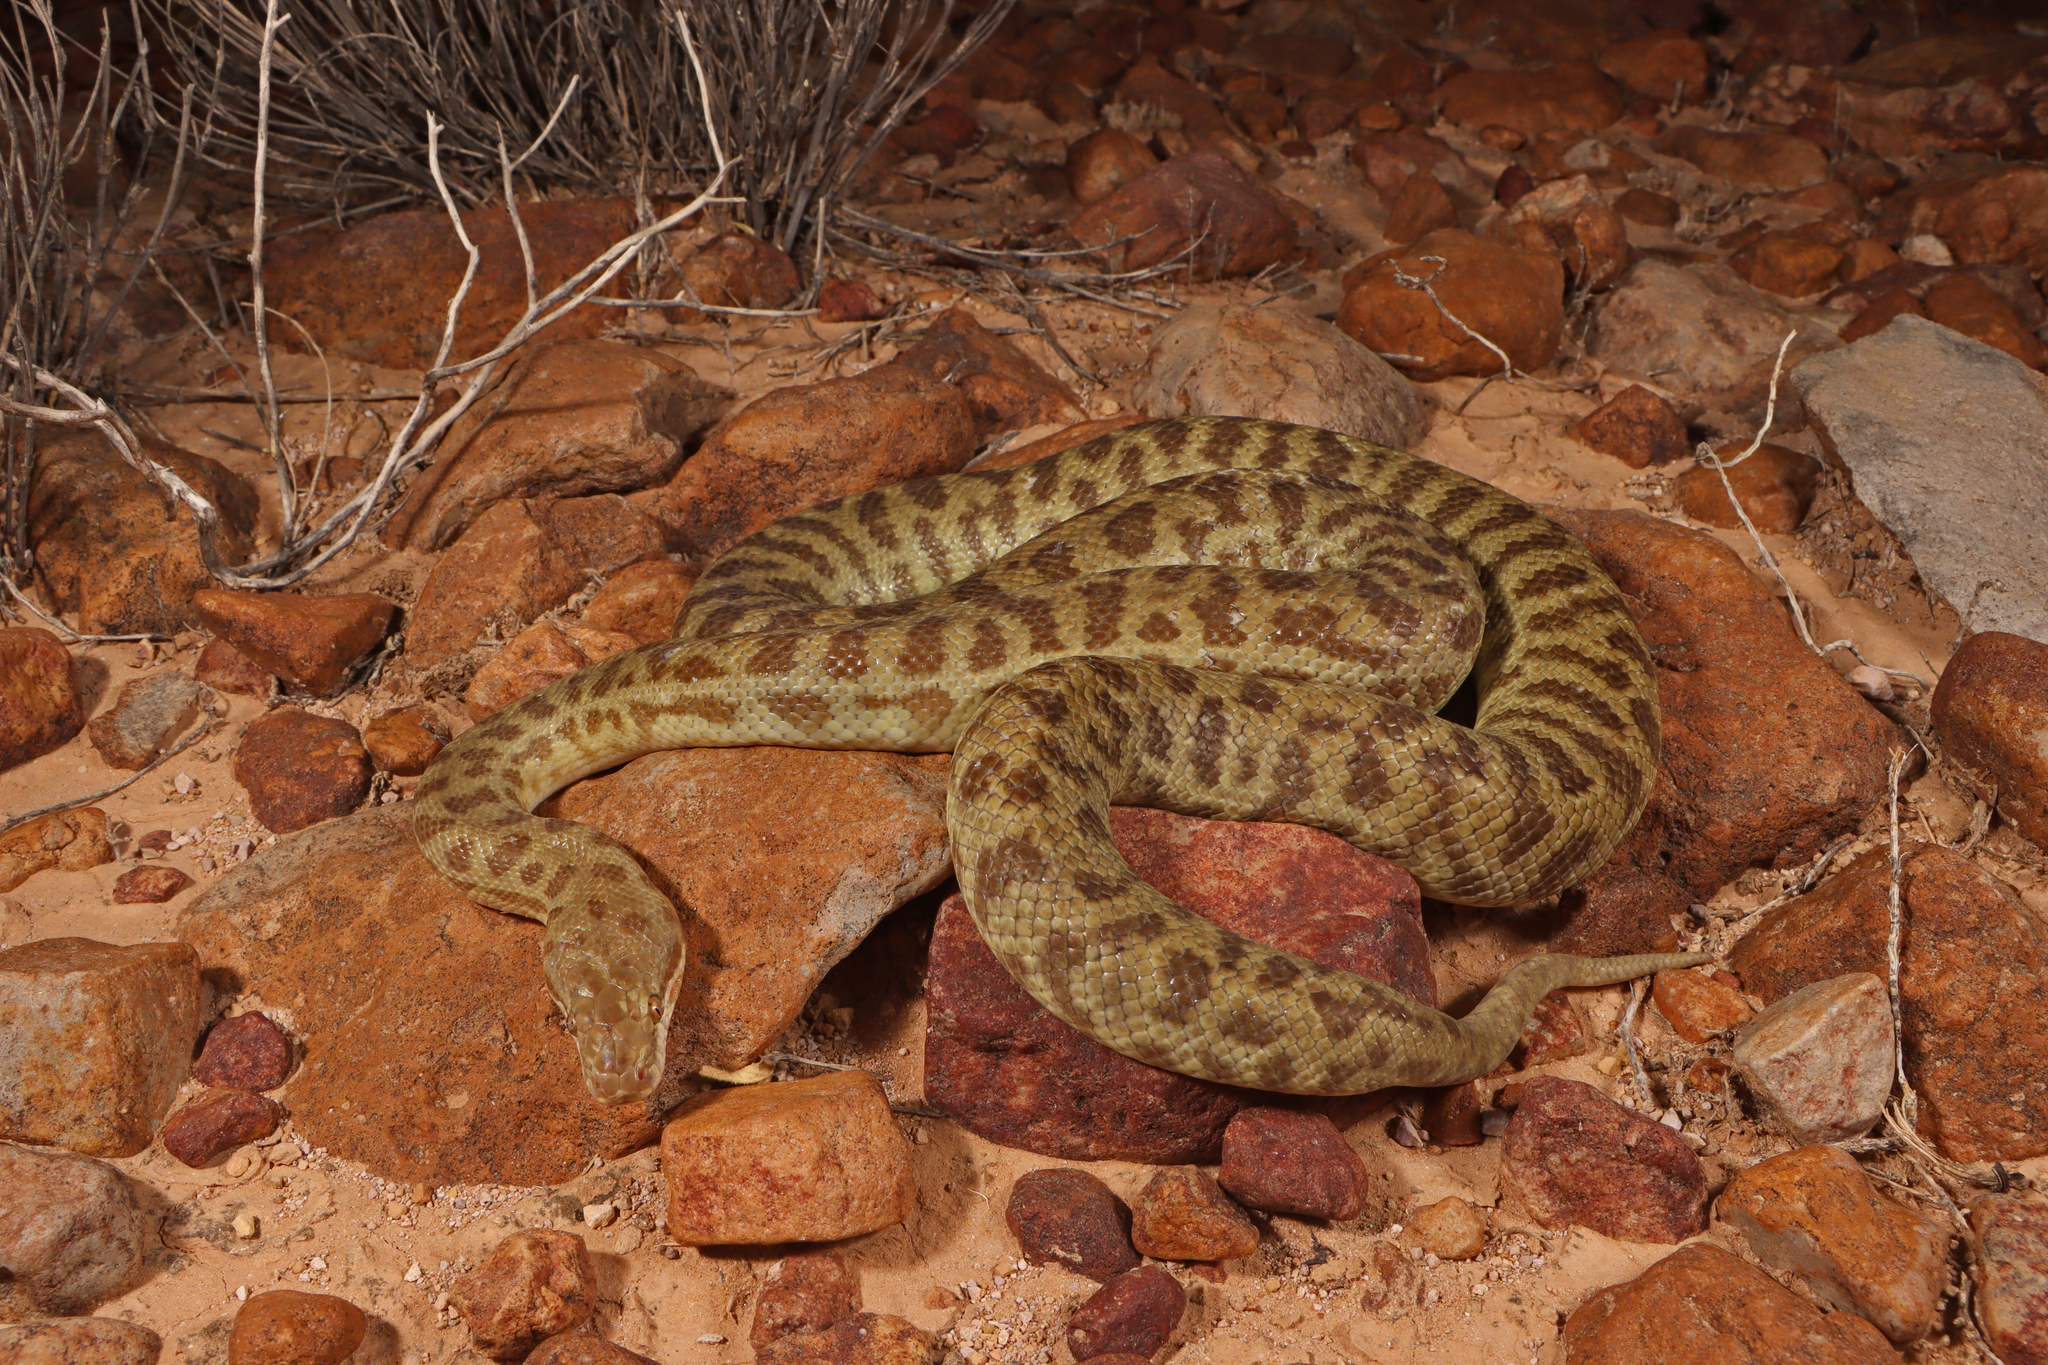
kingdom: Animalia
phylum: Chordata
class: Squamata
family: Pythonidae
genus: Antaresia
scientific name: Antaresia childreni
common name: Children's python
